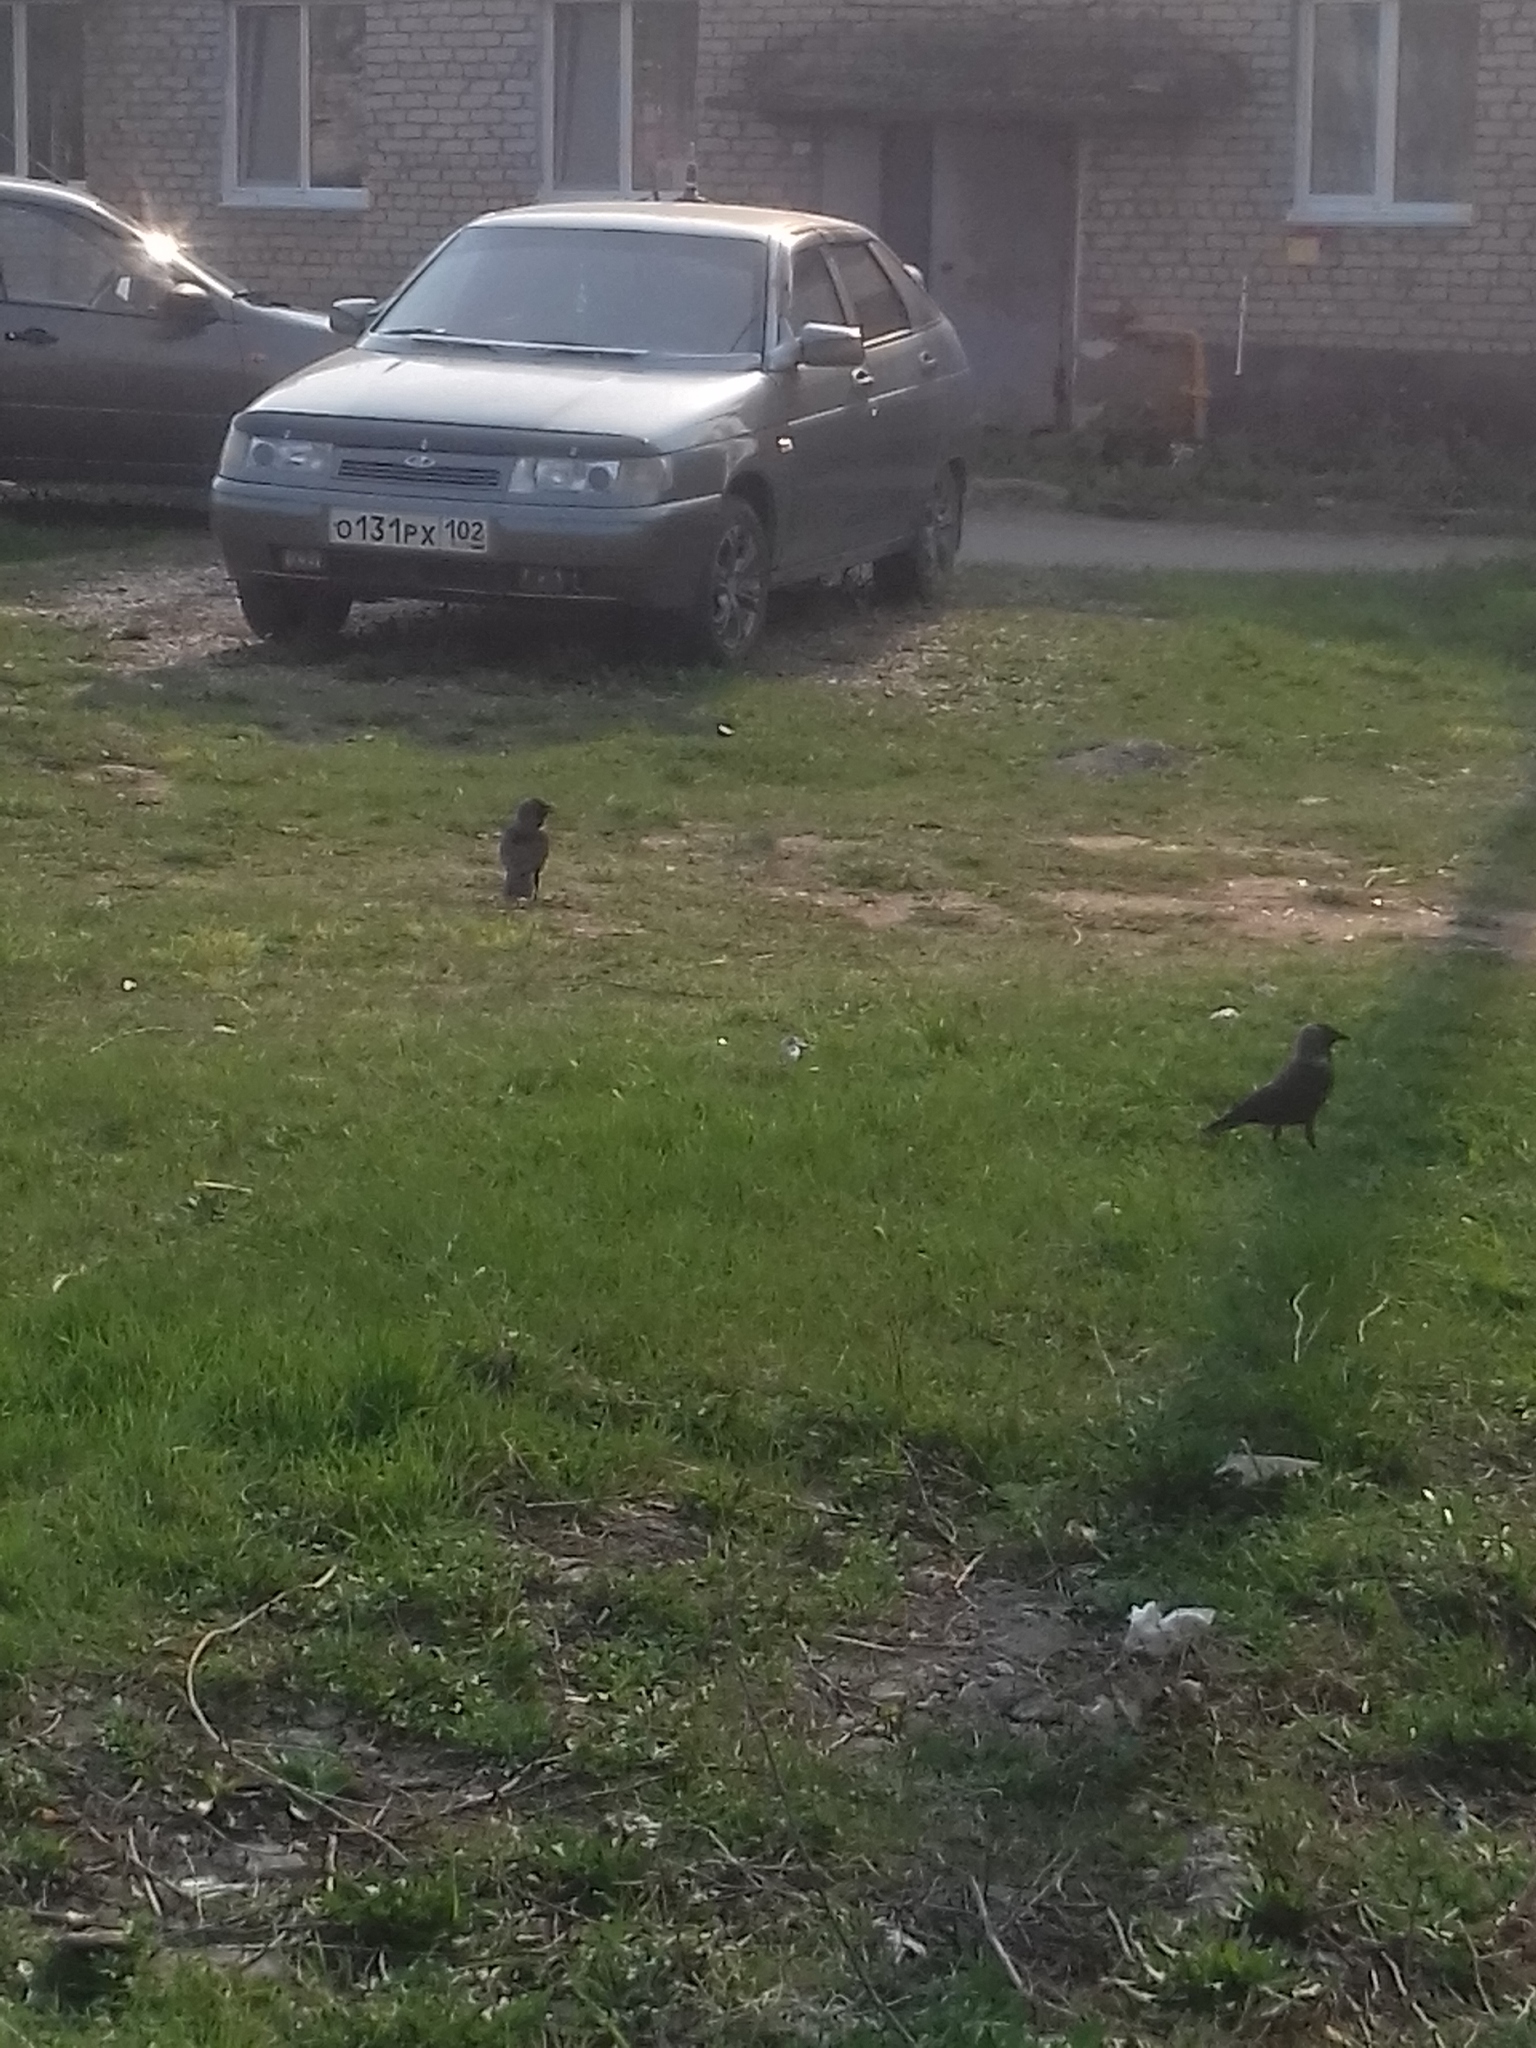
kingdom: Animalia
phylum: Chordata
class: Aves
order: Passeriformes
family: Corvidae
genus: Coloeus
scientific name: Coloeus monedula
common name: Western jackdaw
